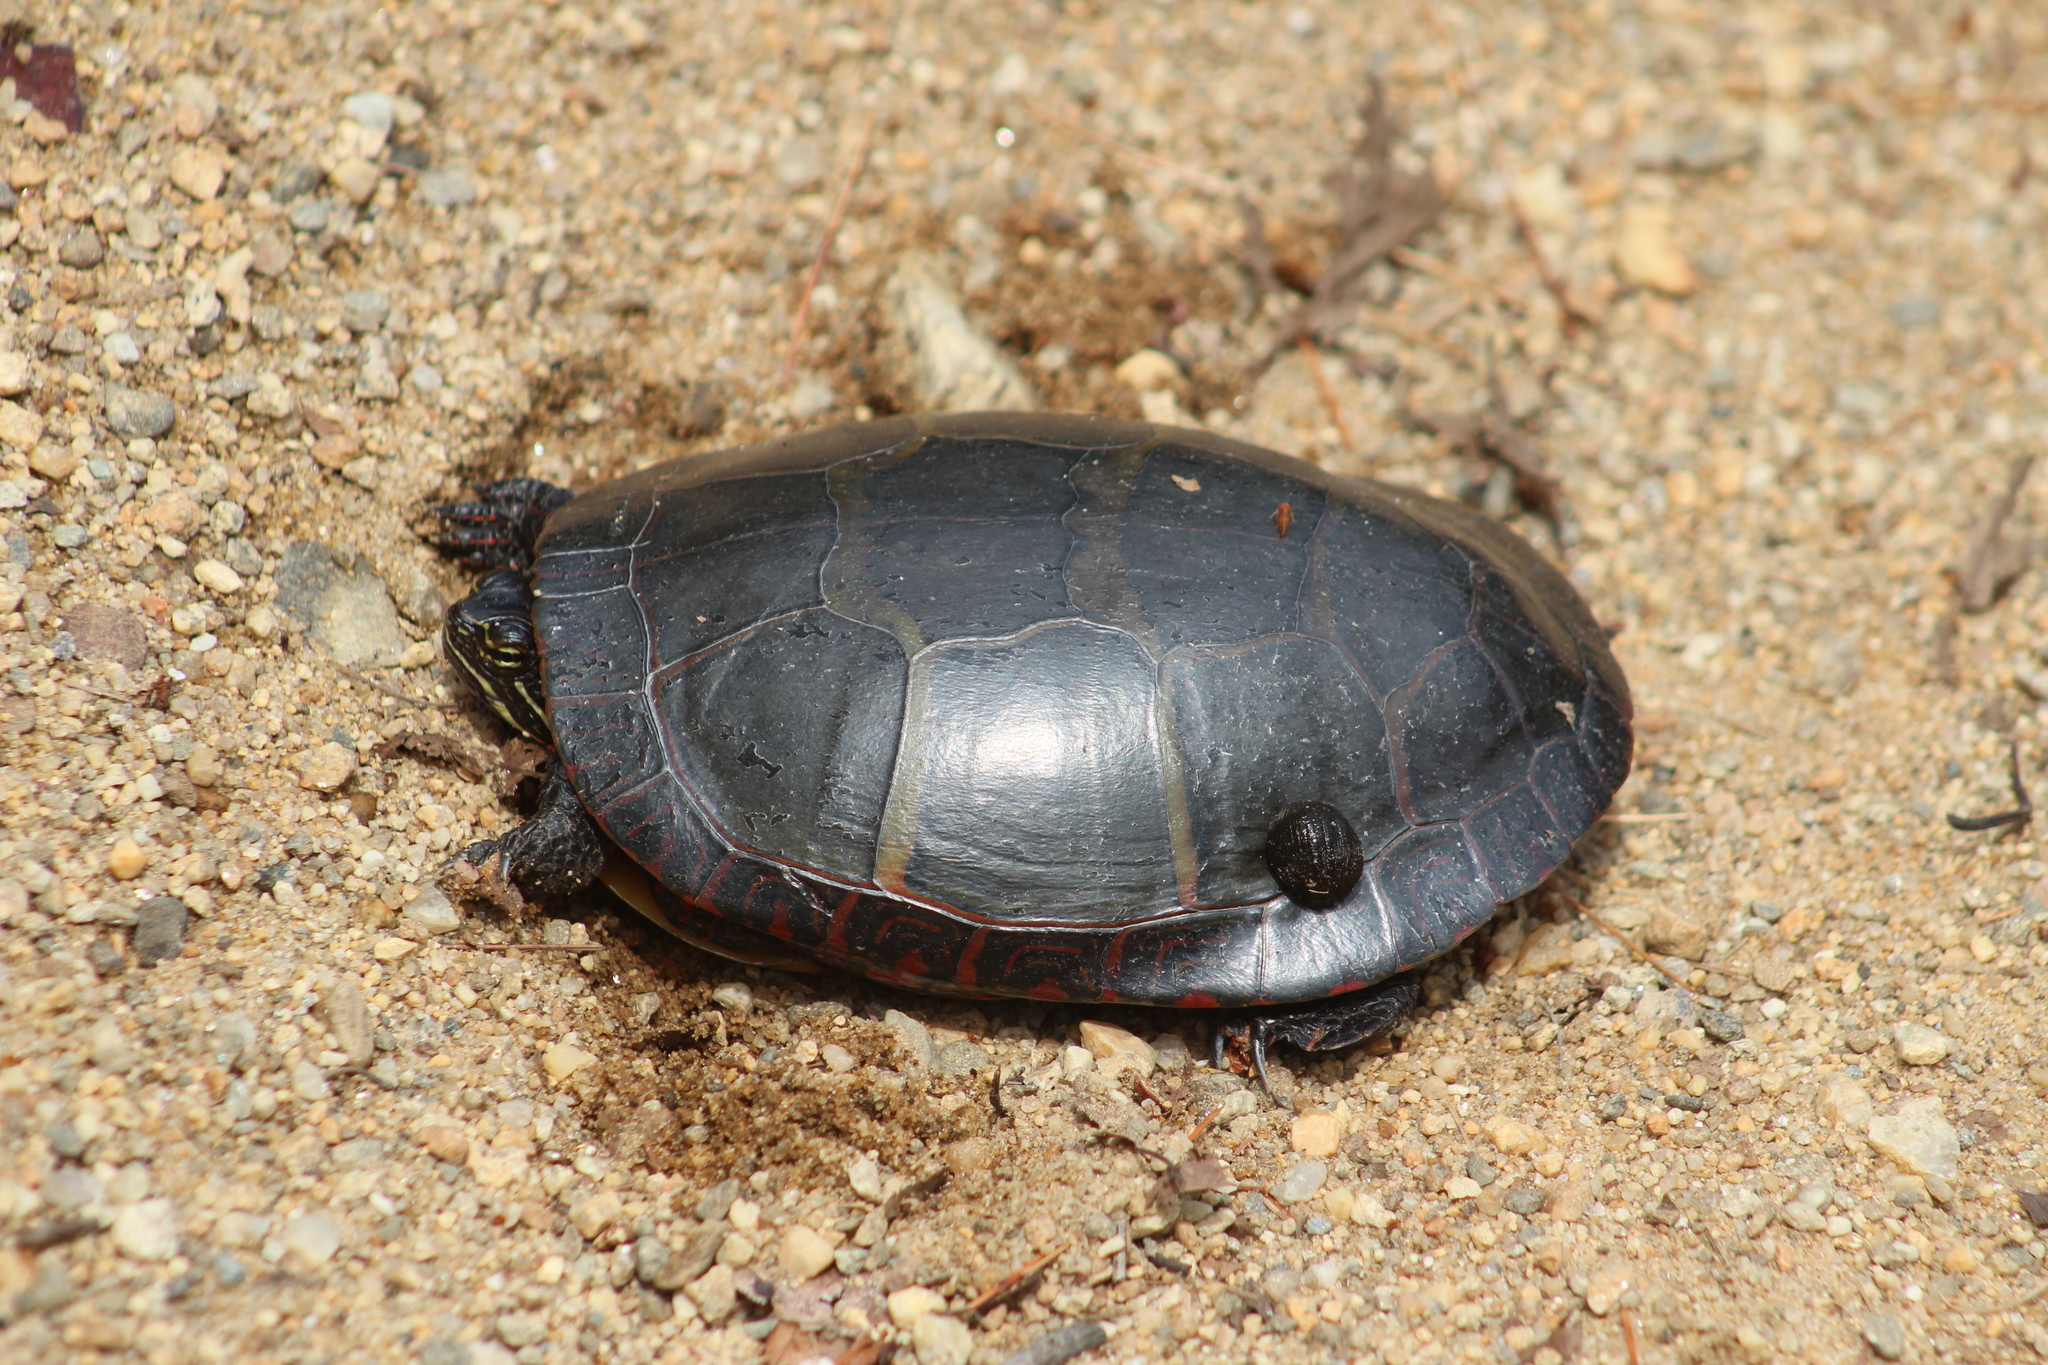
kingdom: Animalia
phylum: Chordata
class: Testudines
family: Emydidae
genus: Chrysemys
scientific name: Chrysemys picta
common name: Painted turtle
